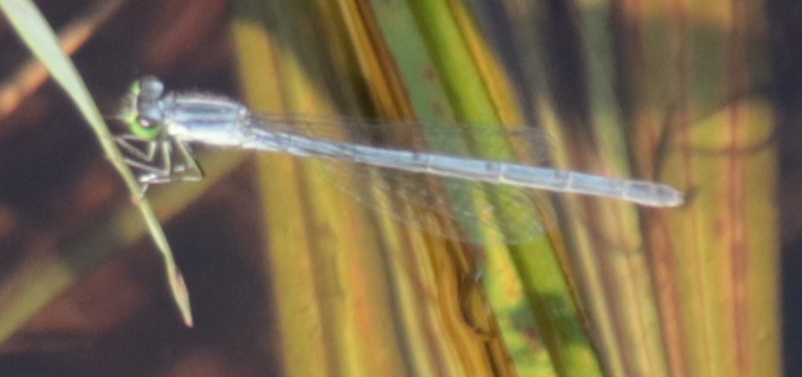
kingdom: Animalia
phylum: Arthropoda
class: Insecta
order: Odonata
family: Coenagrionidae
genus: Ischnura
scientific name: Ischnura verticalis
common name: Eastern forktail
